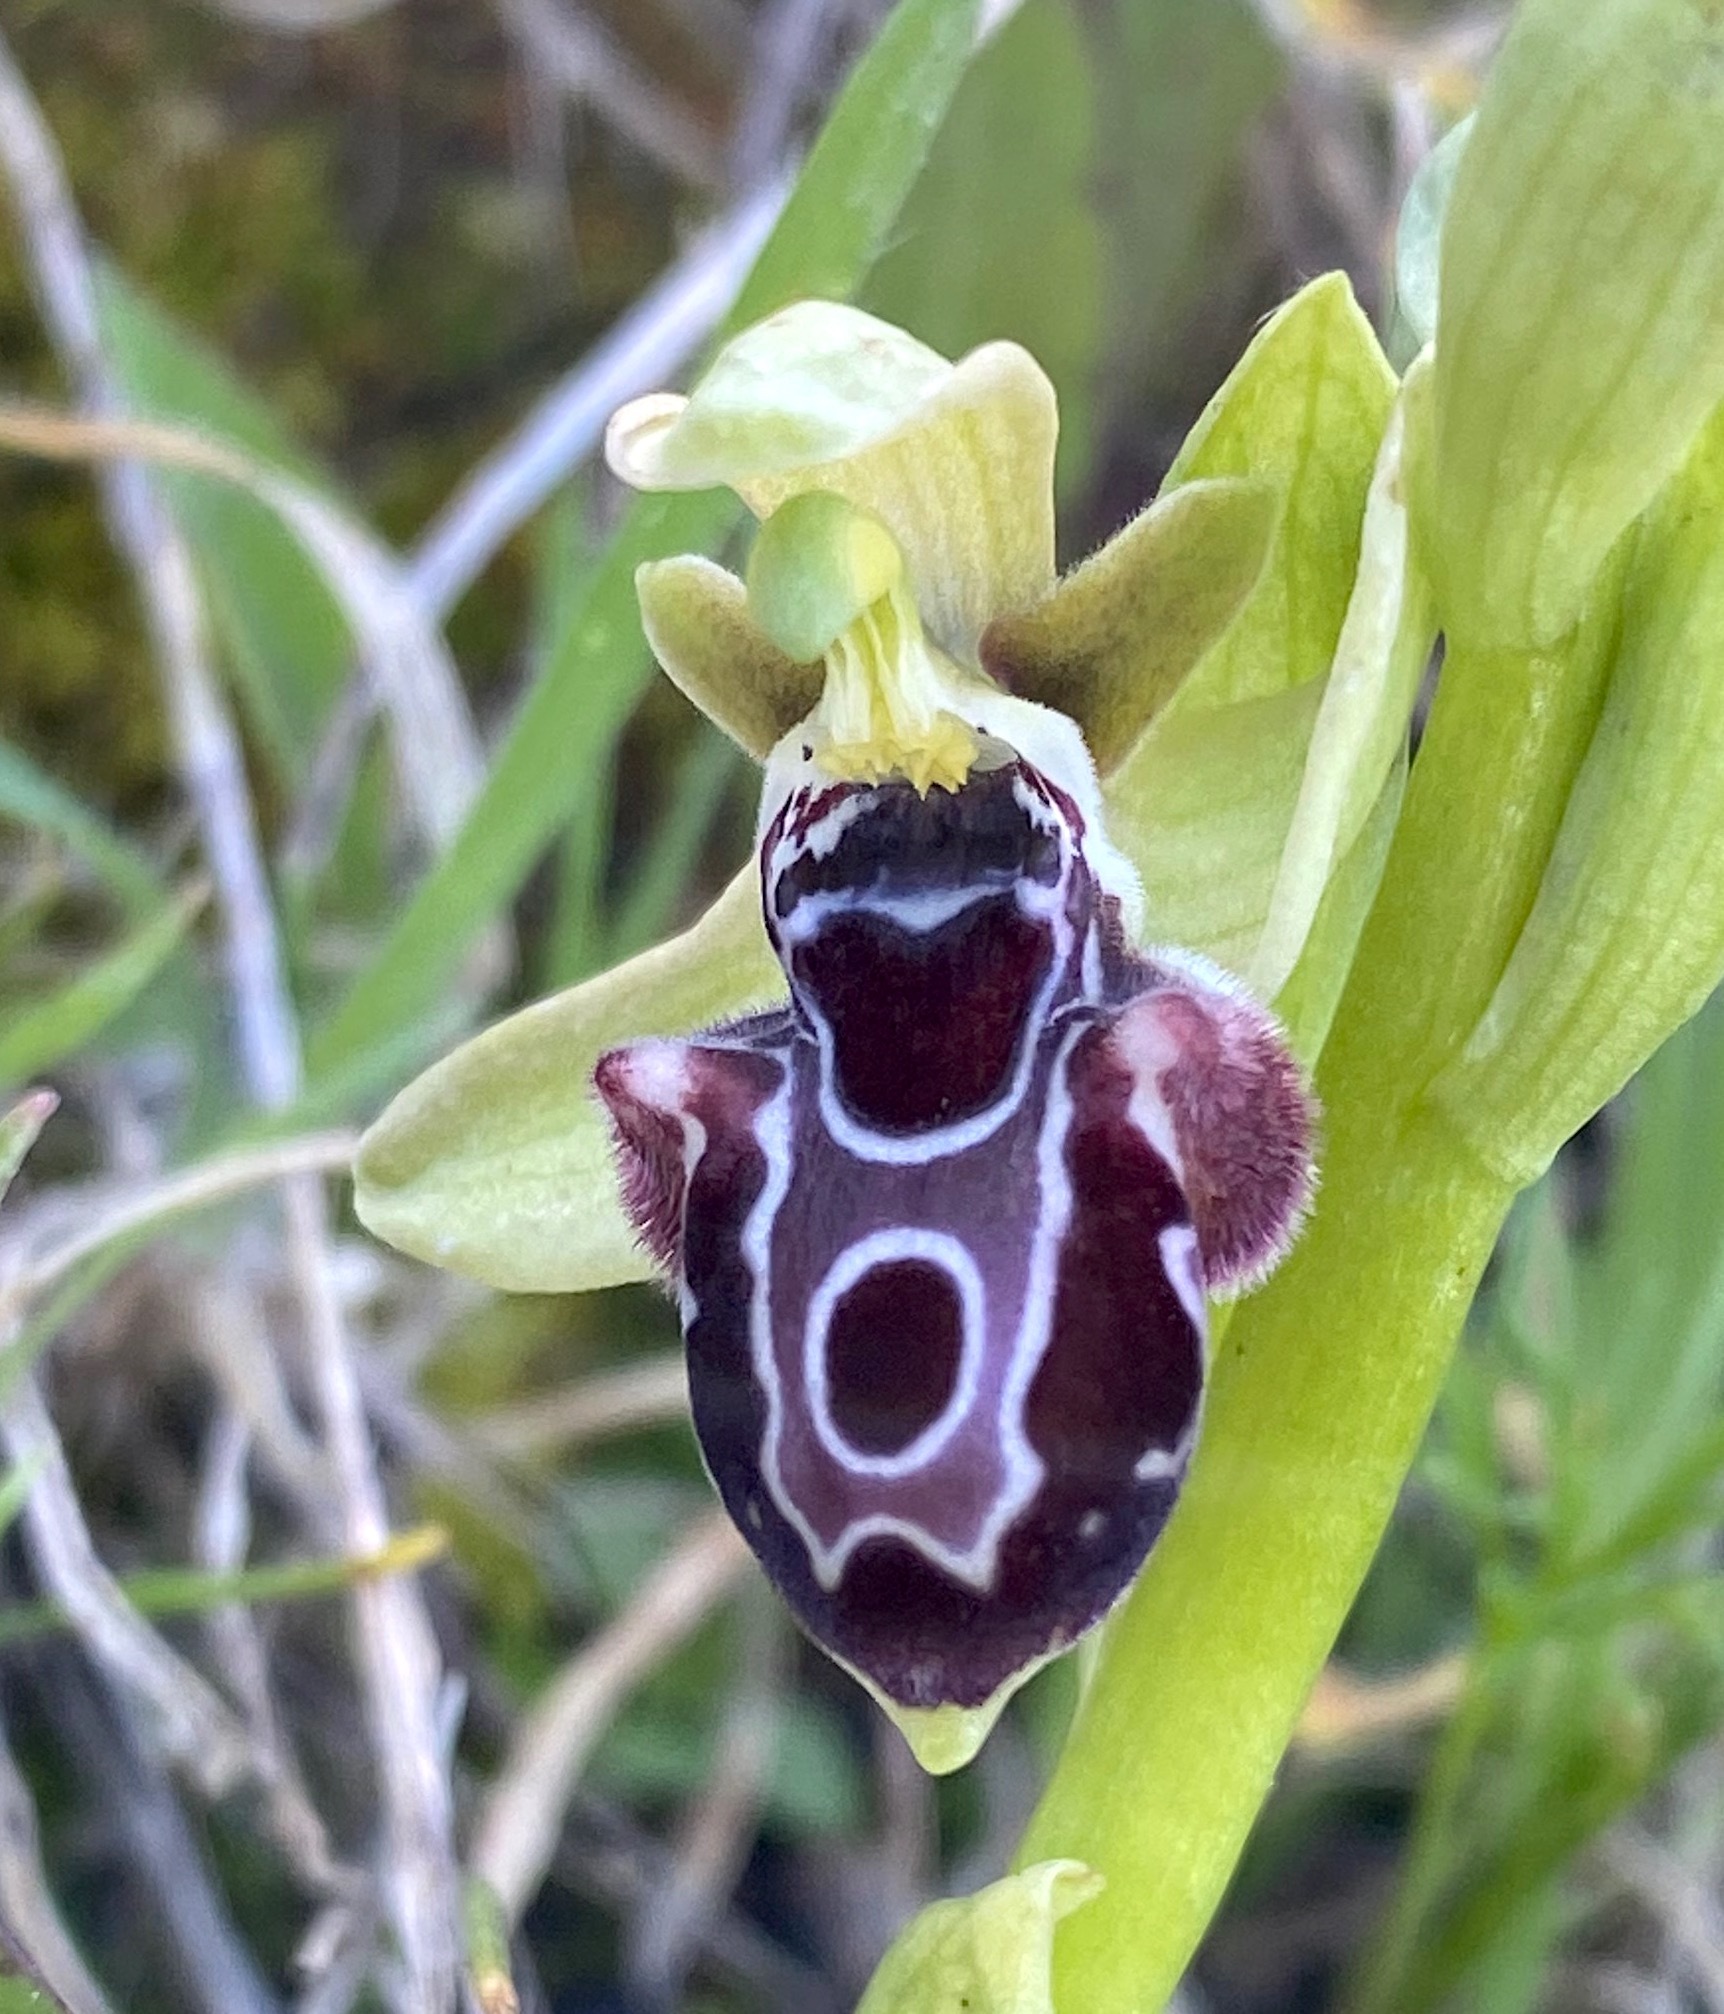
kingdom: Plantae
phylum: Tracheophyta
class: Liliopsida
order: Asparagales
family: Orchidaceae
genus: Ophrys
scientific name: Ophrys kotschyi
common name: Kotschy's ophrys
